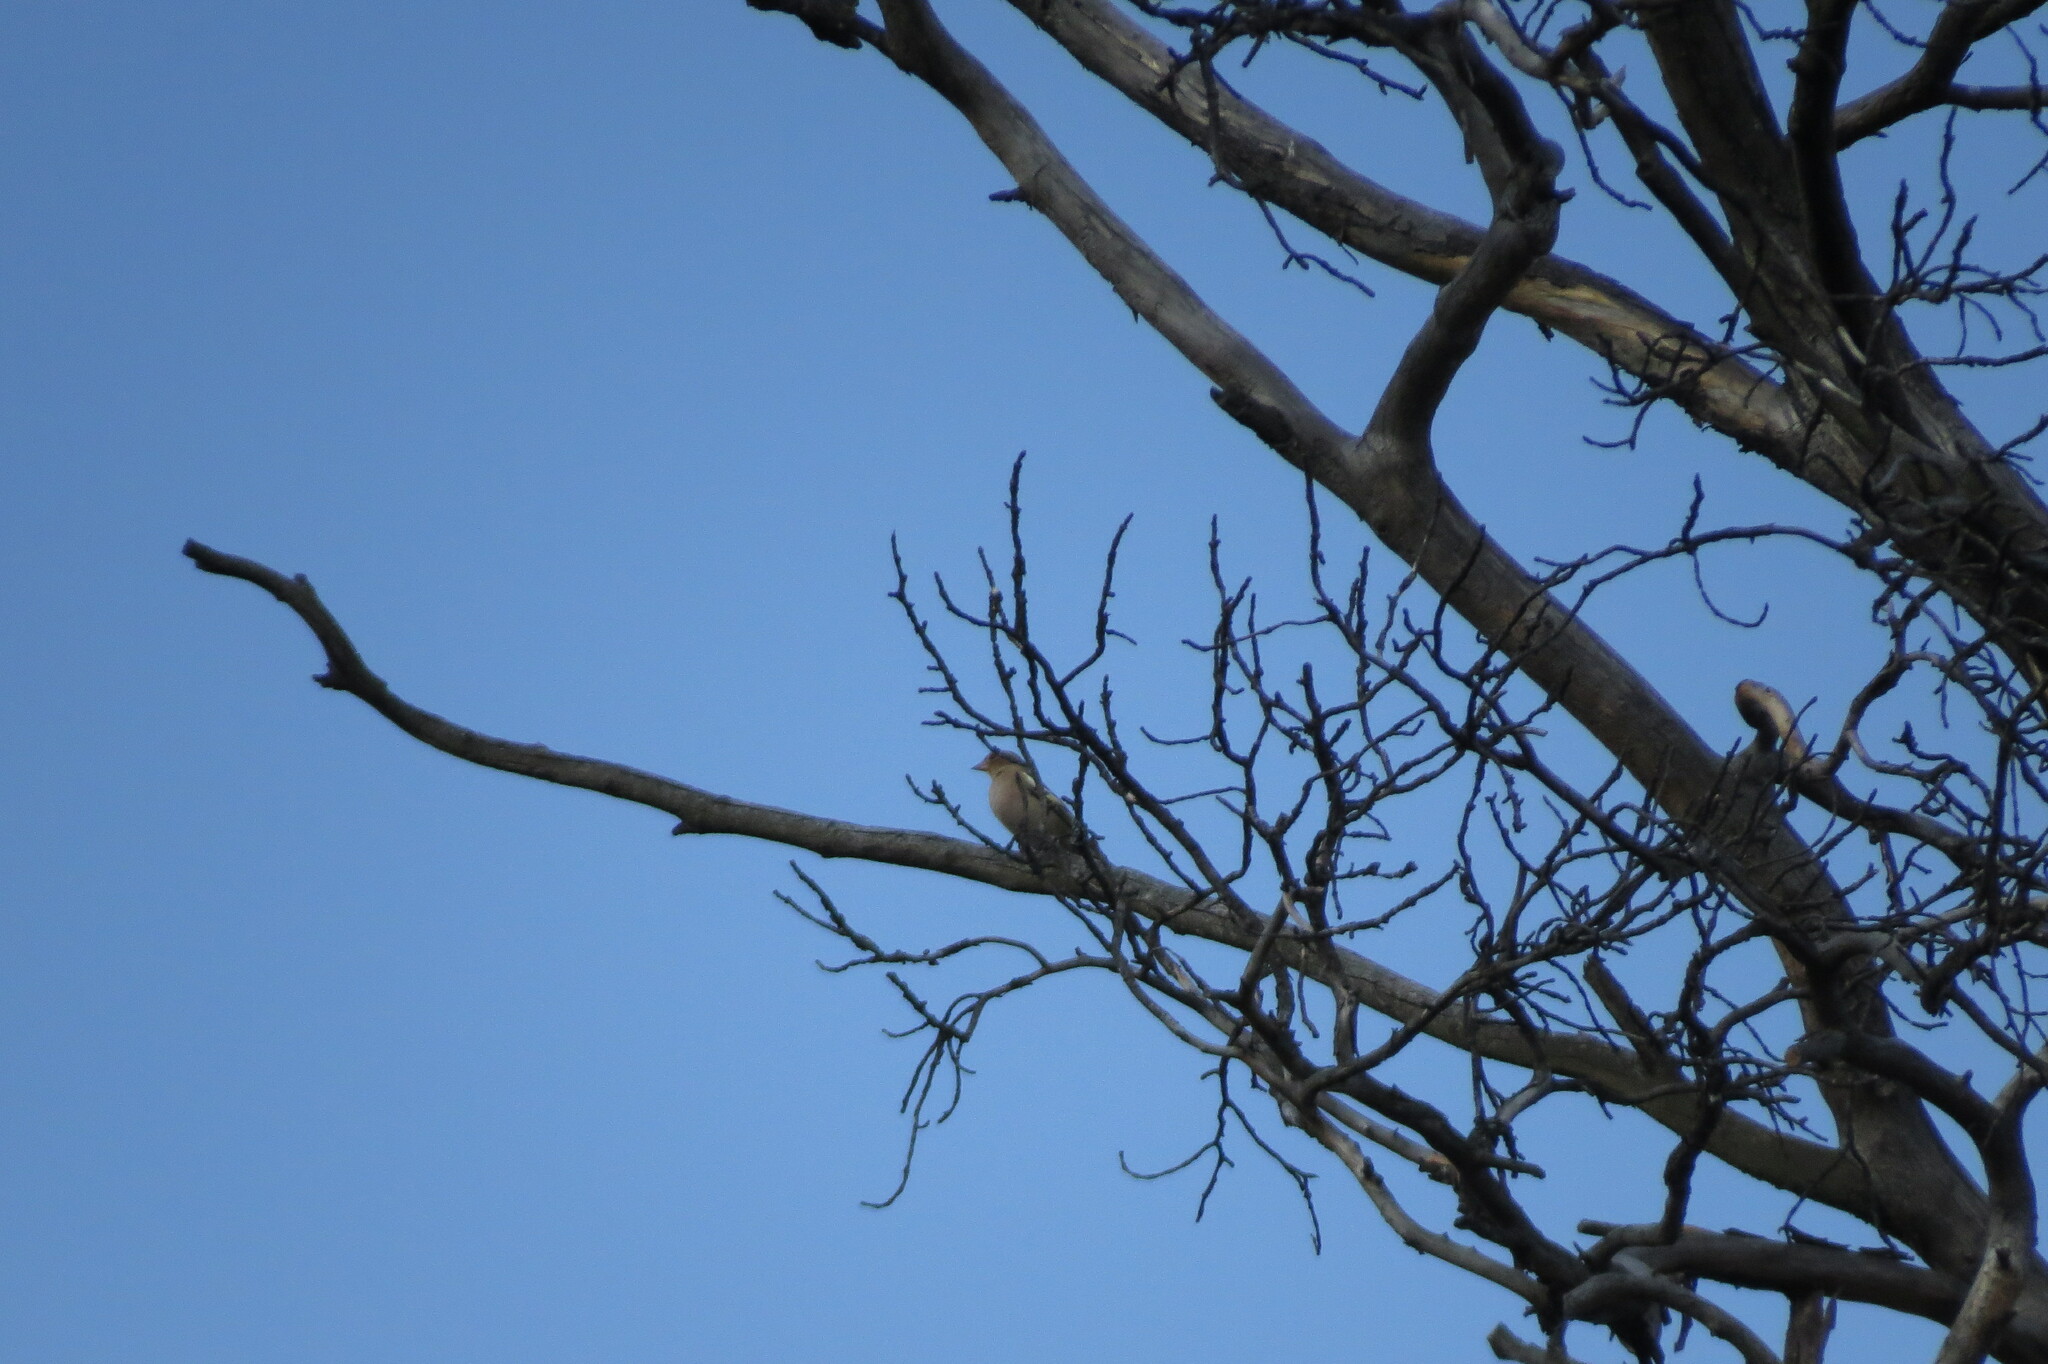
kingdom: Animalia
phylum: Chordata
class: Aves
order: Passeriformes
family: Fringillidae
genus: Fringilla
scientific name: Fringilla coelebs
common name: Common chaffinch
